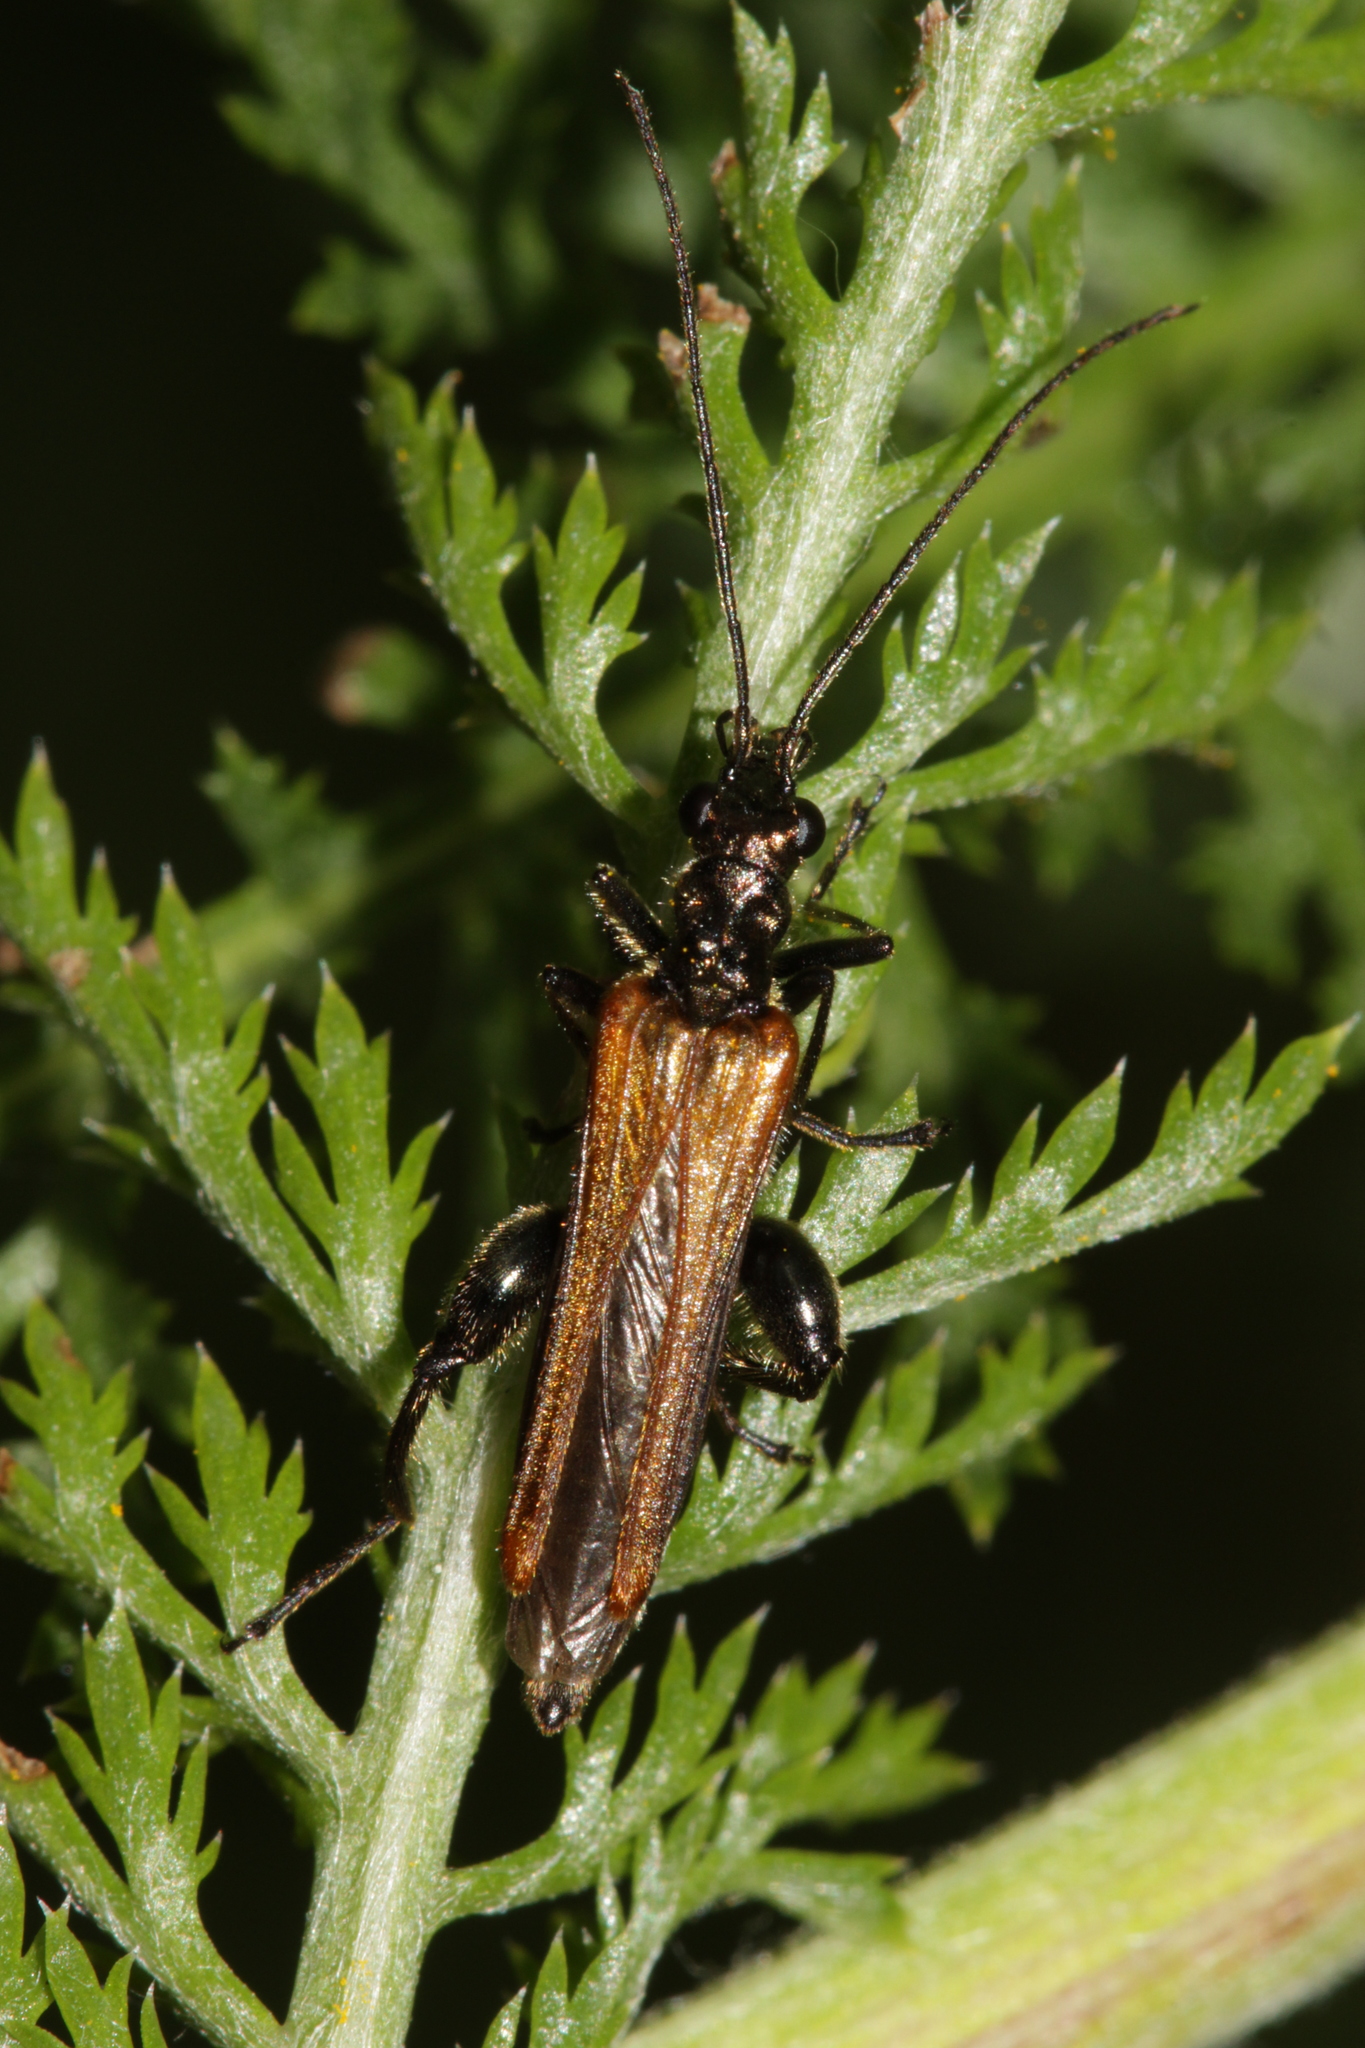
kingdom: Animalia
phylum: Arthropoda
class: Insecta
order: Coleoptera
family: Oedemeridae
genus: Oedemera
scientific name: Oedemera femorata
